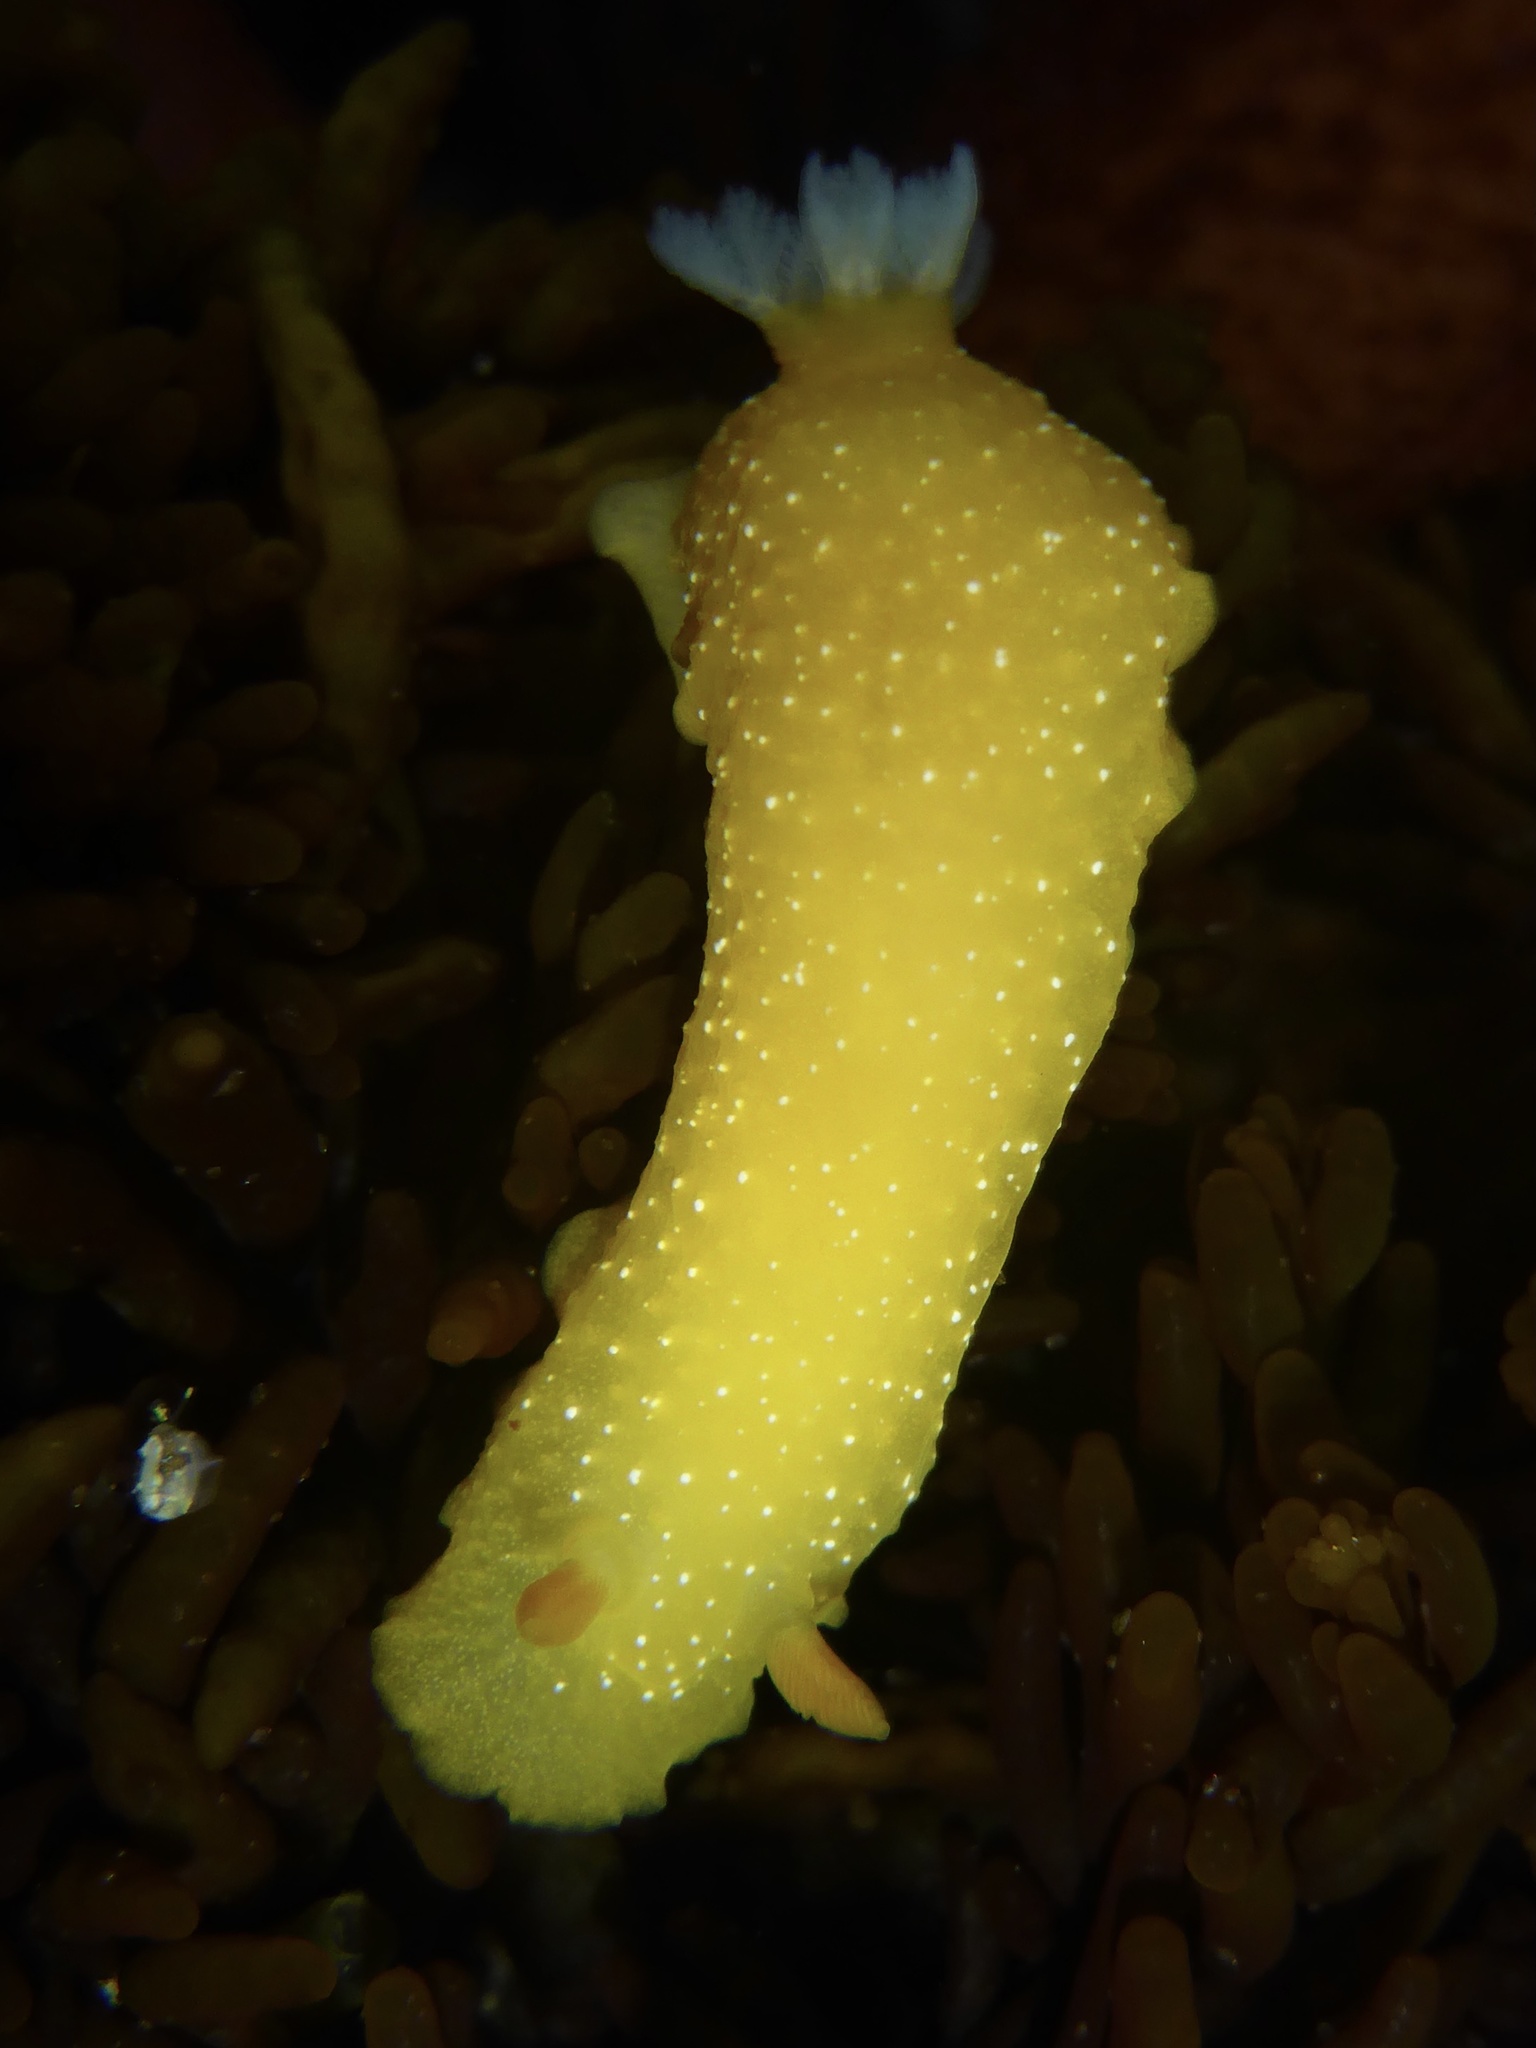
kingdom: Animalia
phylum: Mollusca
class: Gastropoda
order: Nudibranchia
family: Dendrodorididae
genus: Doriopsilla
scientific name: Doriopsilla fulva
